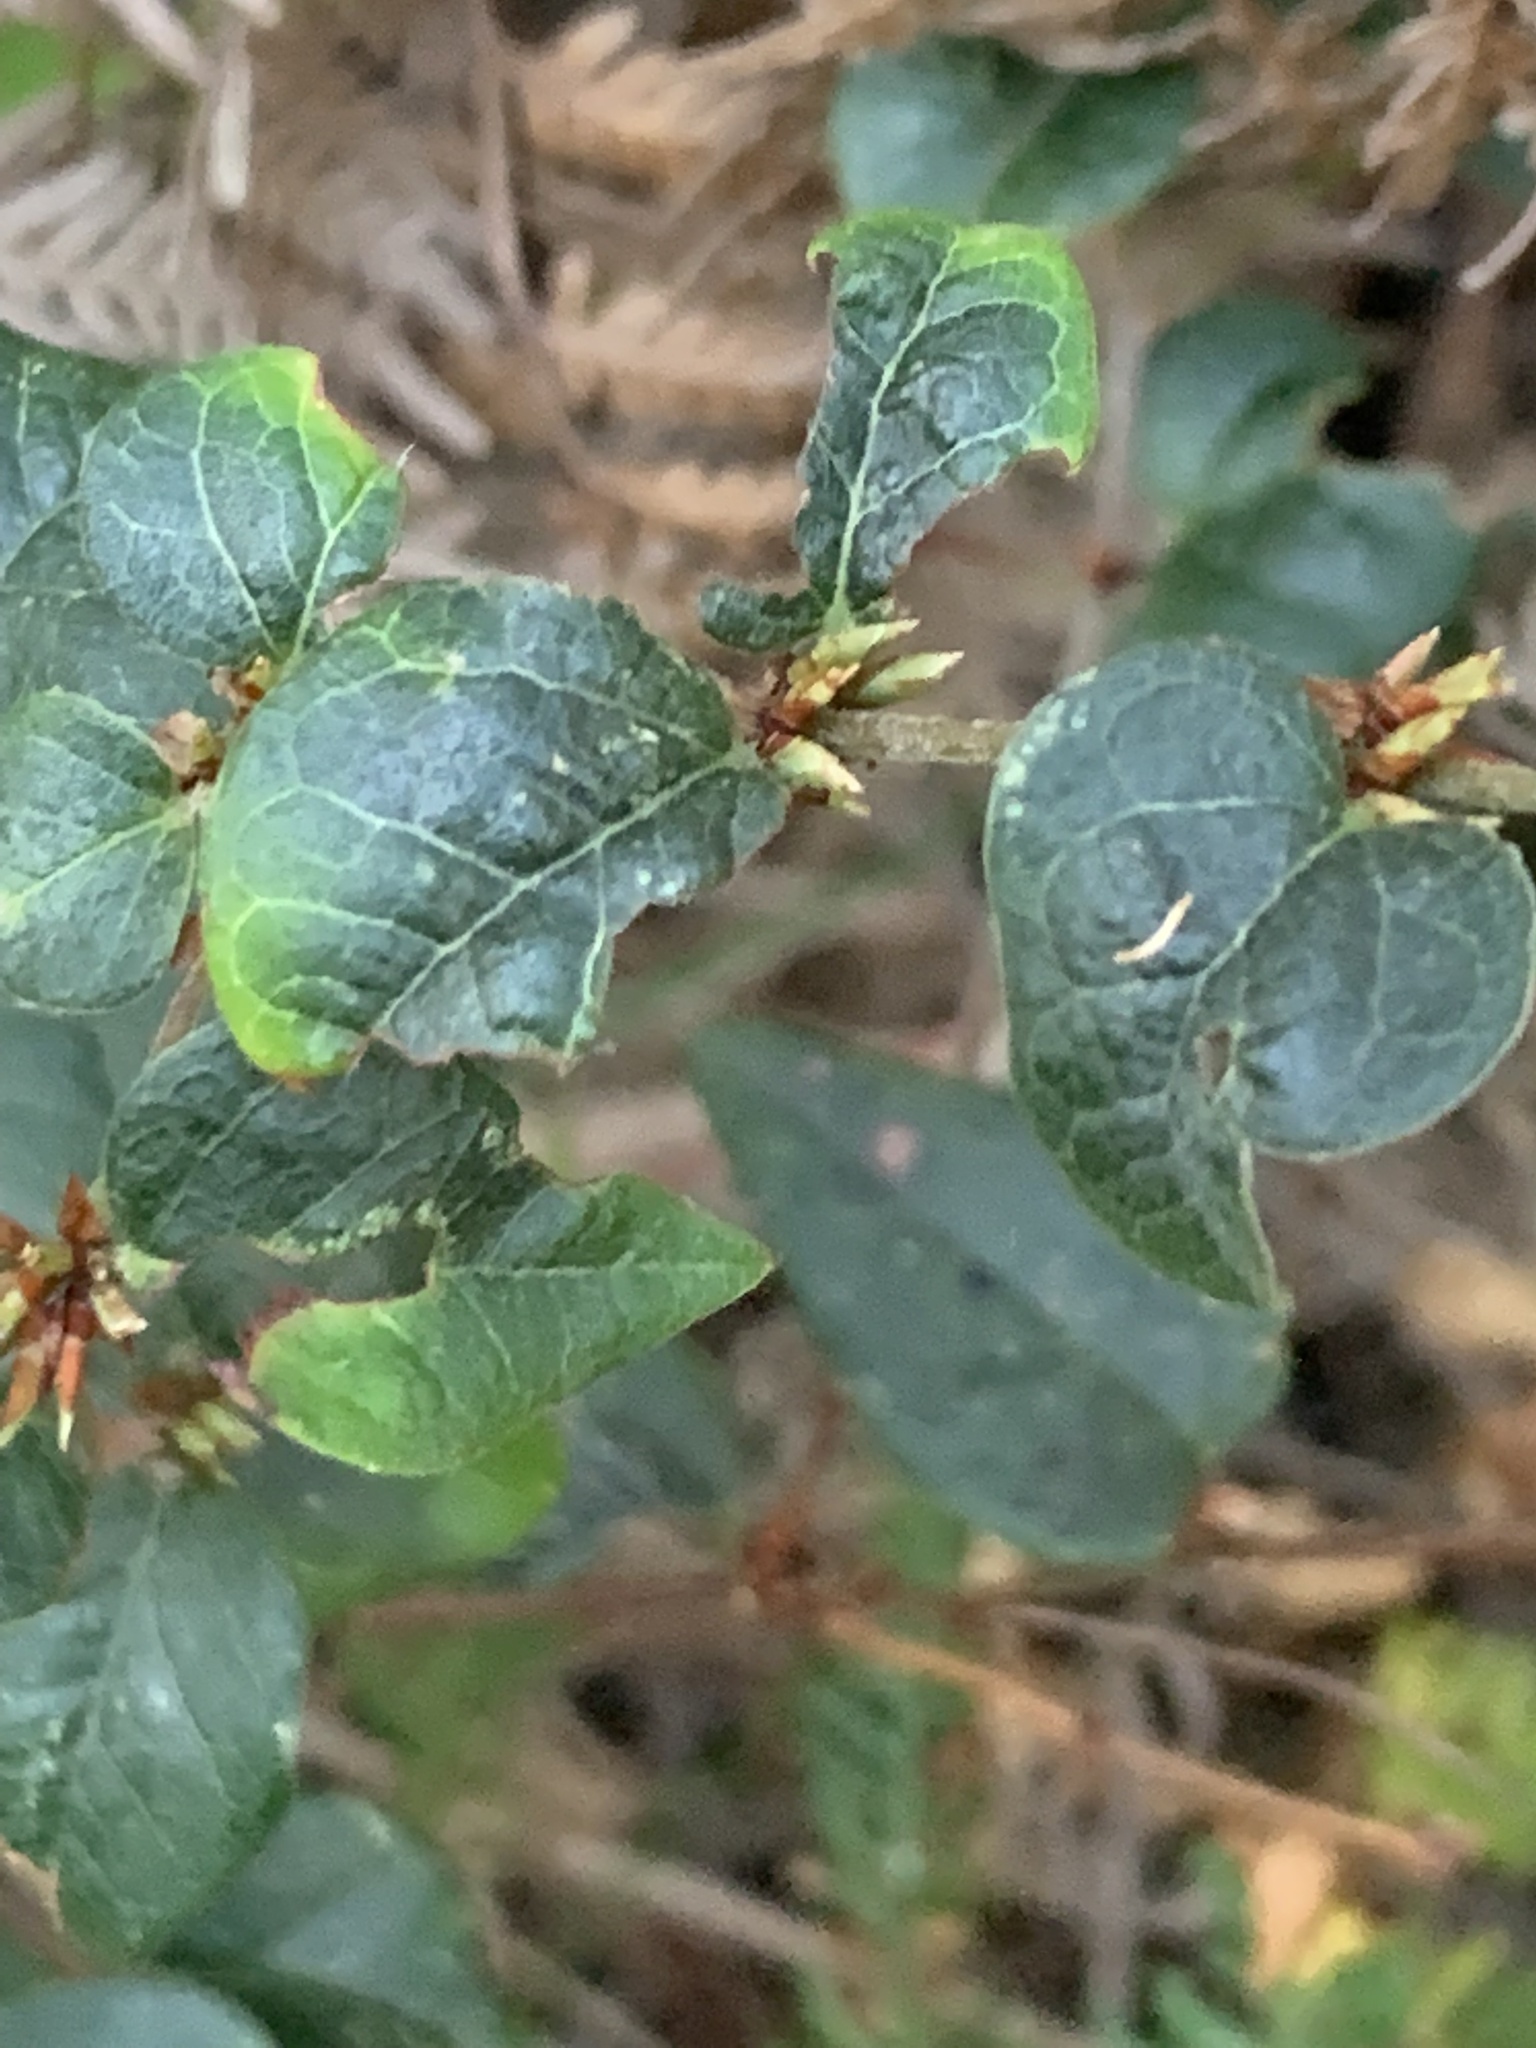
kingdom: Plantae
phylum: Tracheophyta
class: Magnoliopsida
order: Fabales
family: Fabaceae
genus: Platylobium
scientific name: Platylobium reflexum
